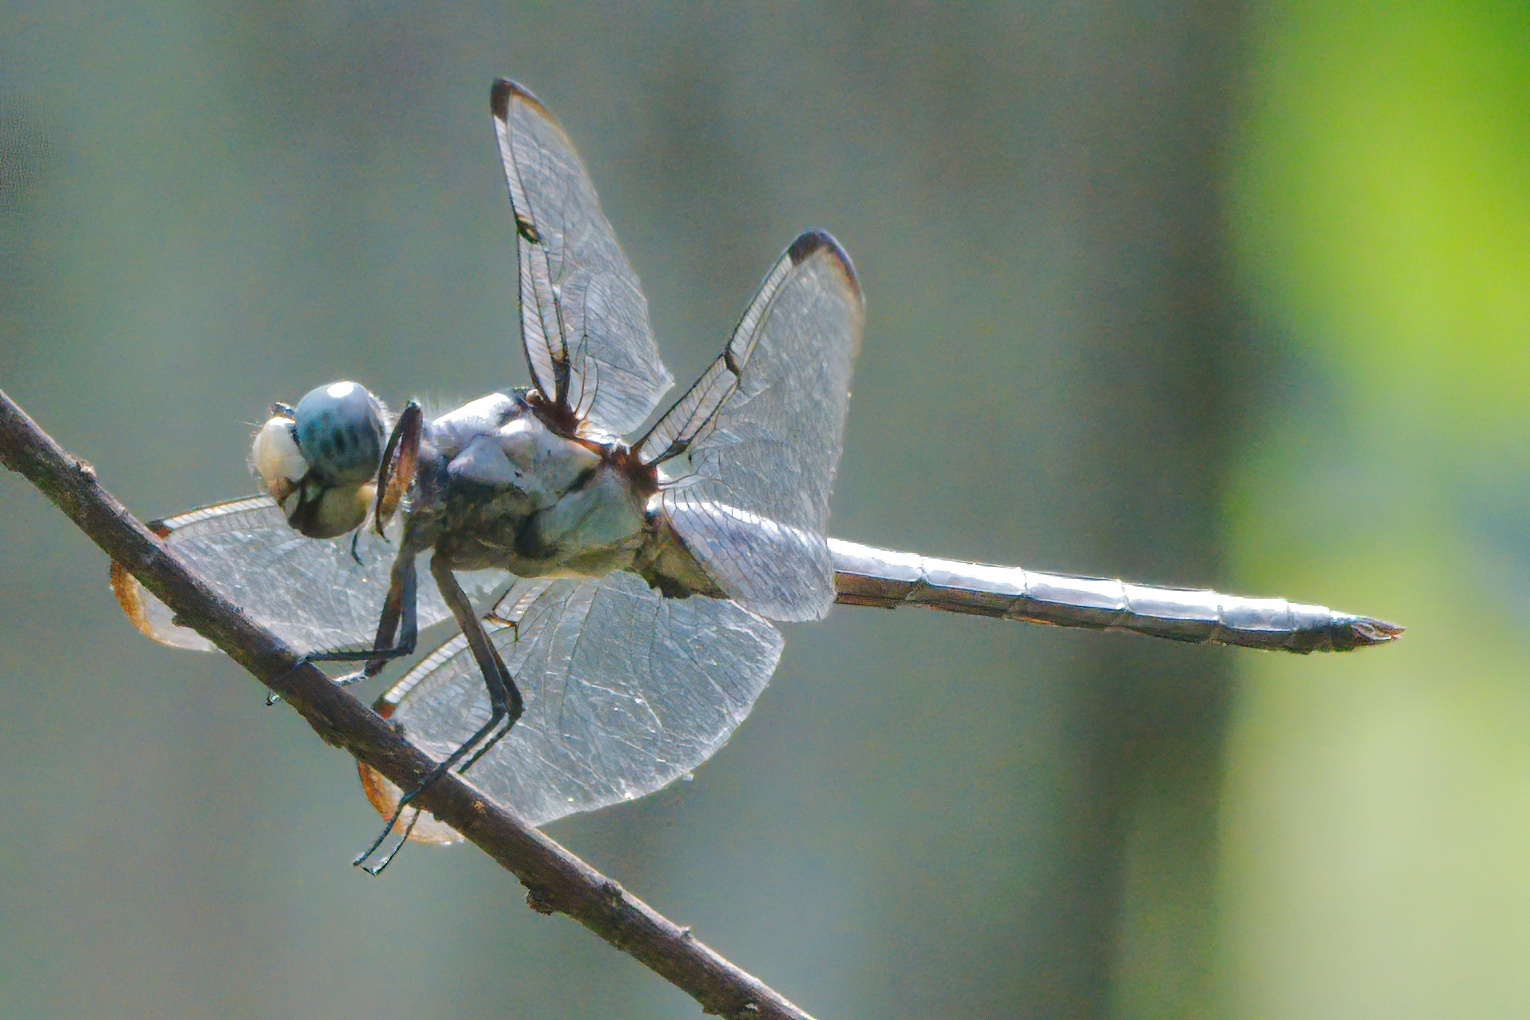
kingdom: Animalia
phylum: Arthropoda
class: Insecta
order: Odonata
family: Libellulidae
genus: Libellula
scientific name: Libellula vibrans
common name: Great blue skimmer
